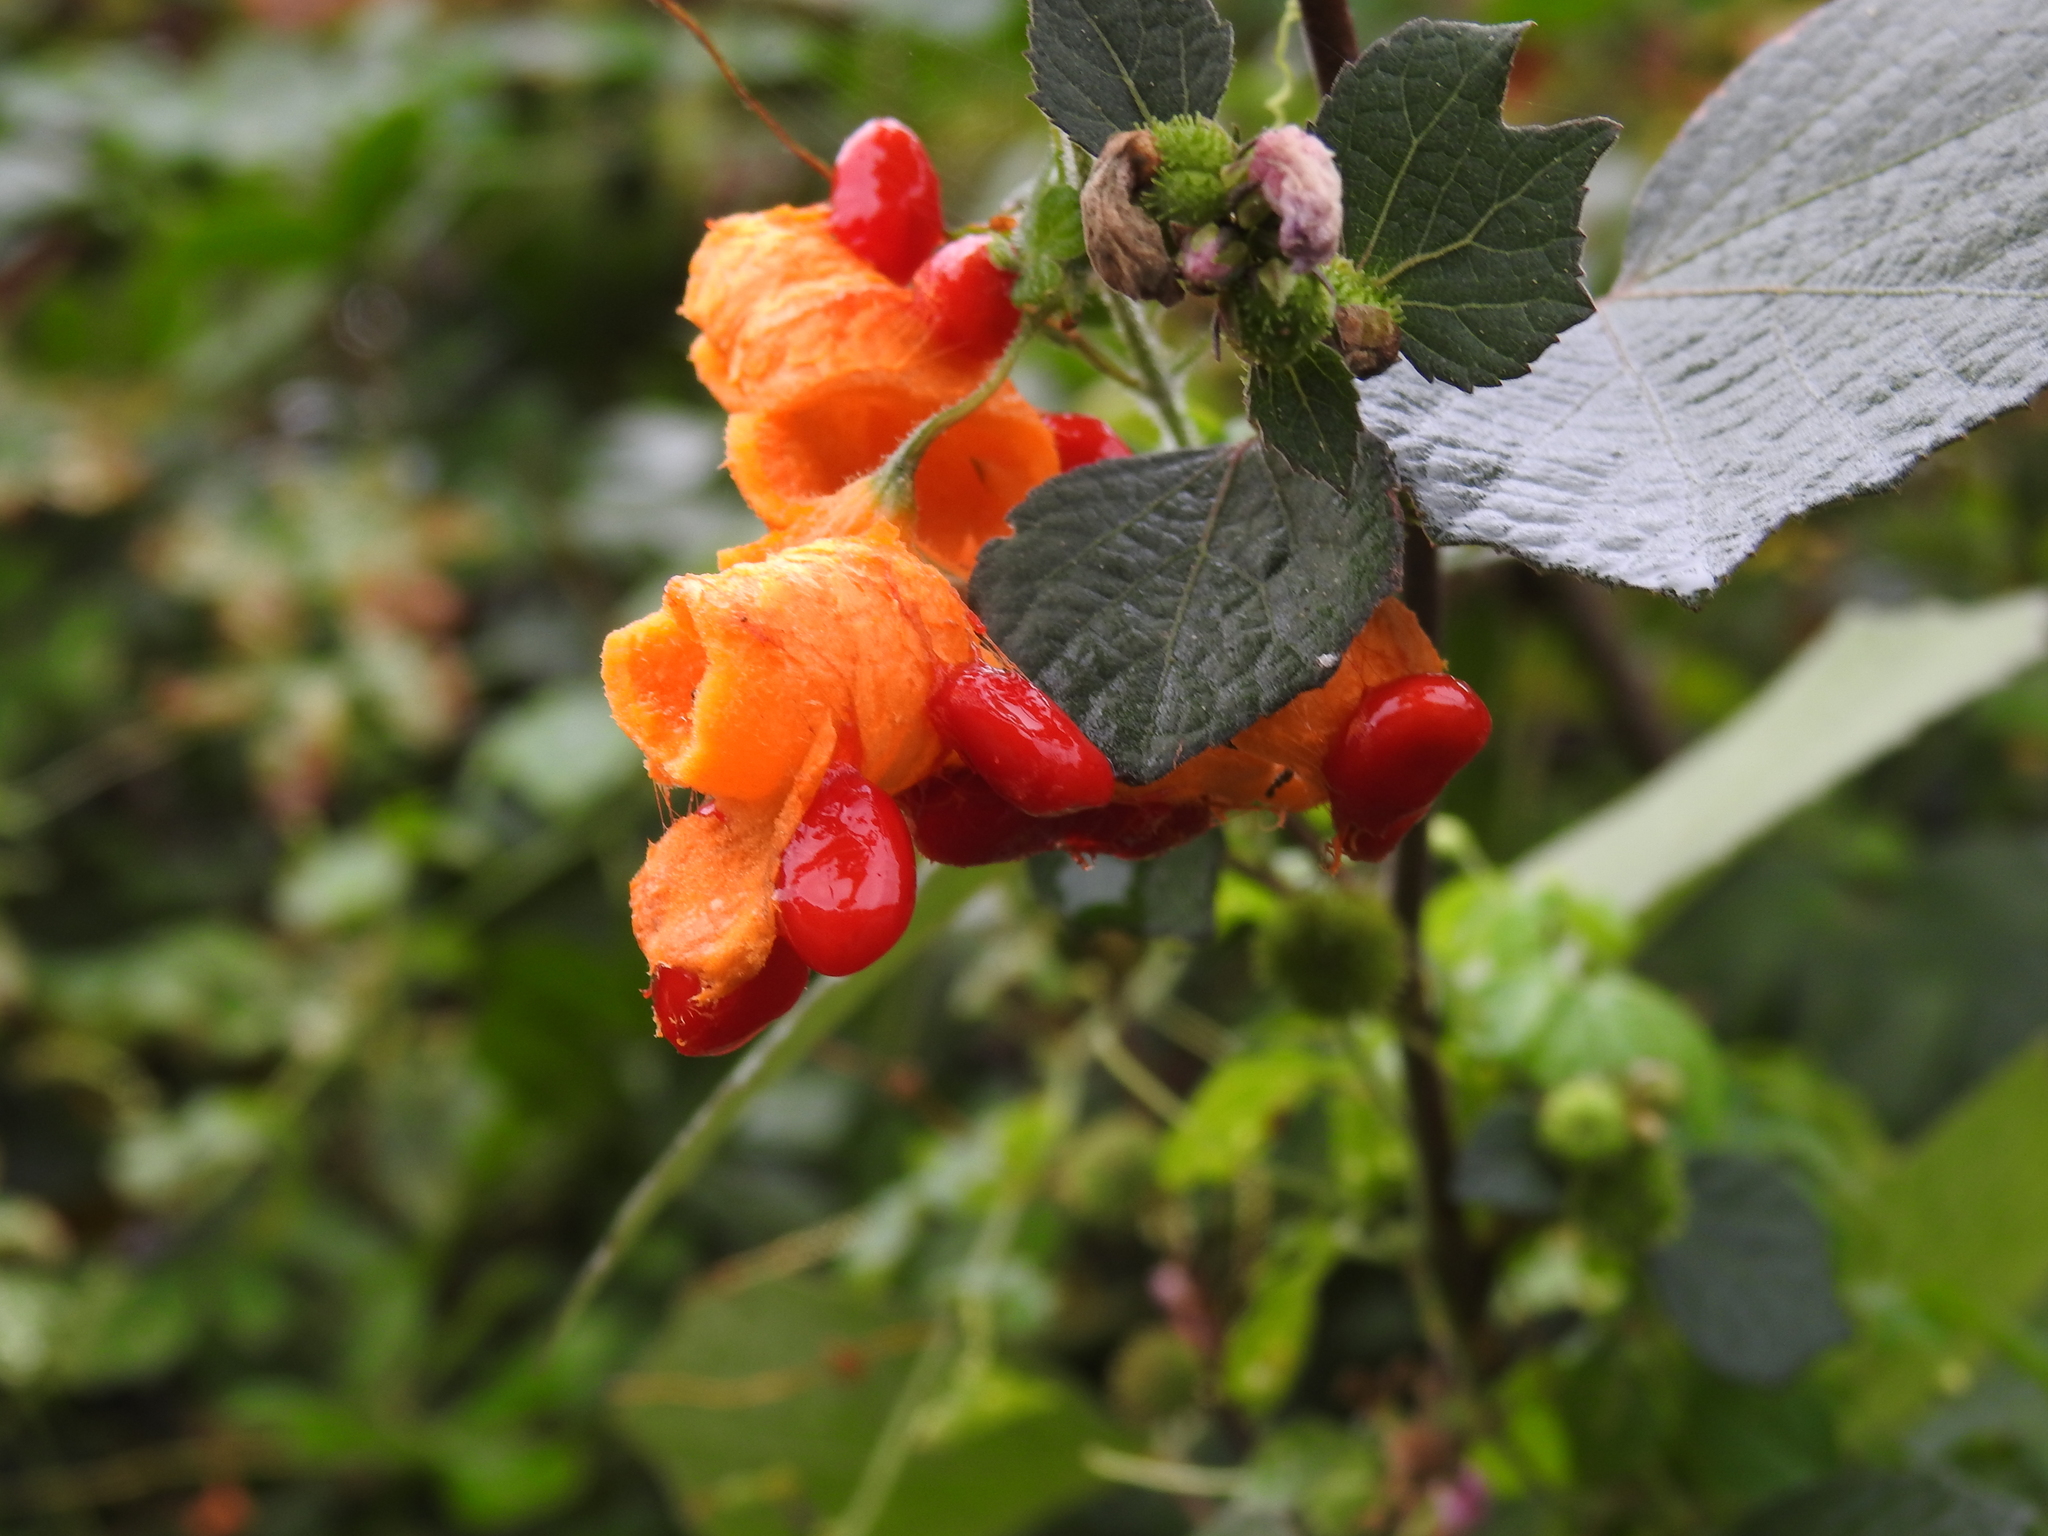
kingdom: Plantae
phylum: Tracheophyta
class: Magnoliopsida
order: Cucurbitales
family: Cucurbitaceae
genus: Momordica
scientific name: Momordica charantia
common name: Balsampear
